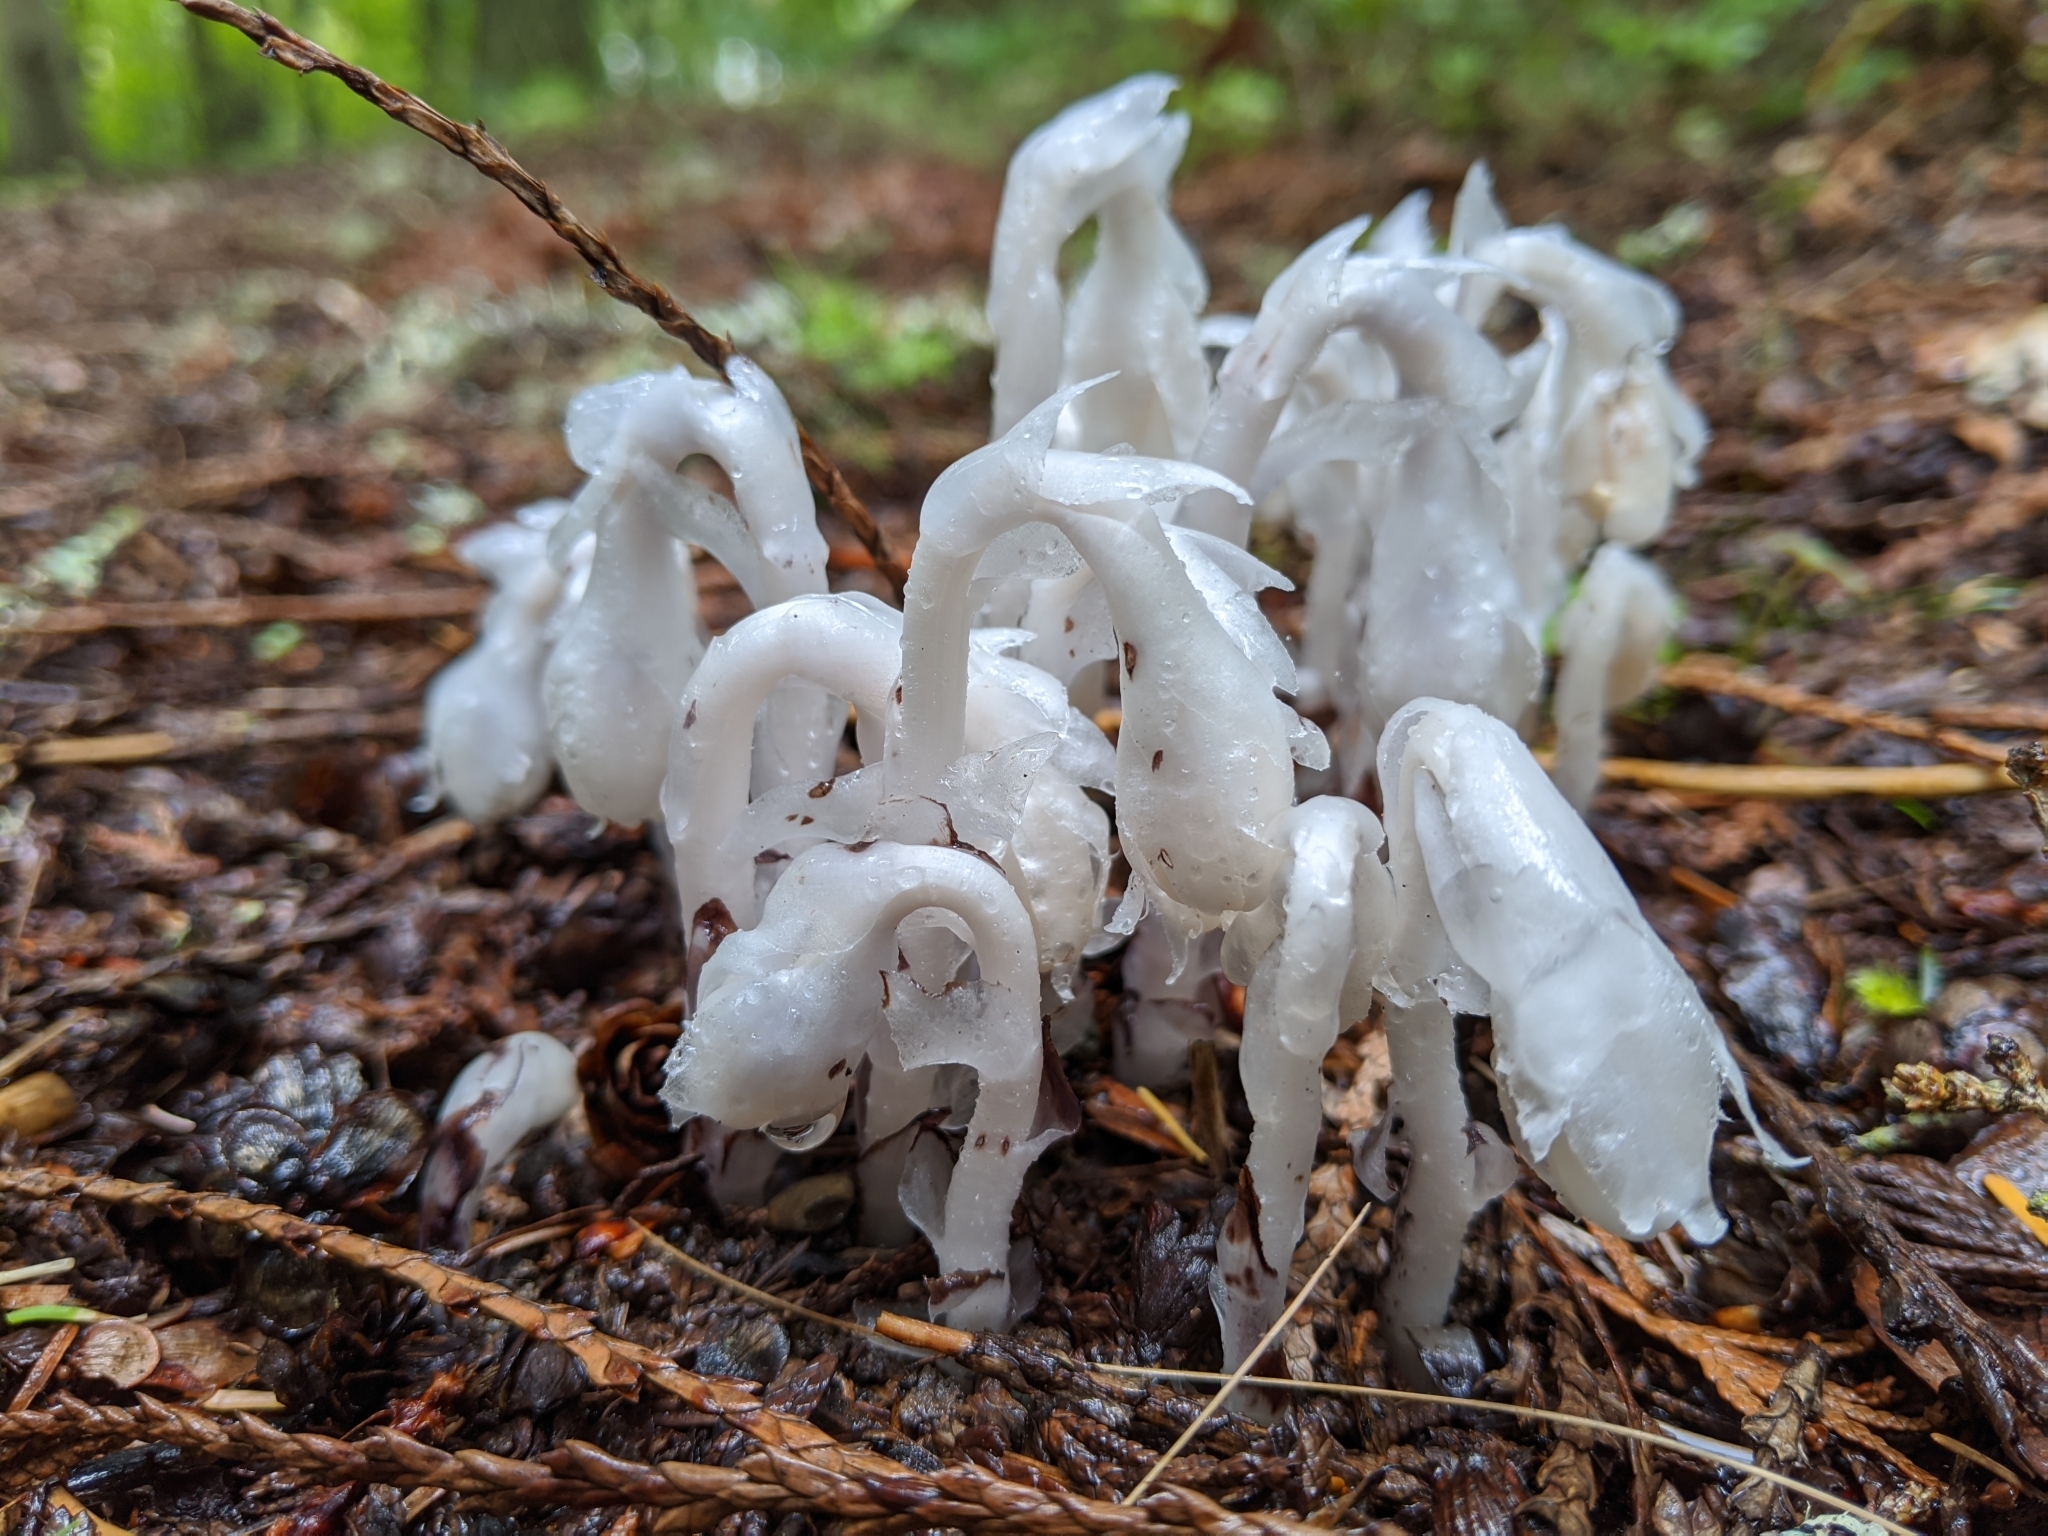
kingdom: Plantae
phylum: Tracheophyta
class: Magnoliopsida
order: Ericales
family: Ericaceae
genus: Monotropa
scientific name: Monotropa uniflora
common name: Convulsion root
